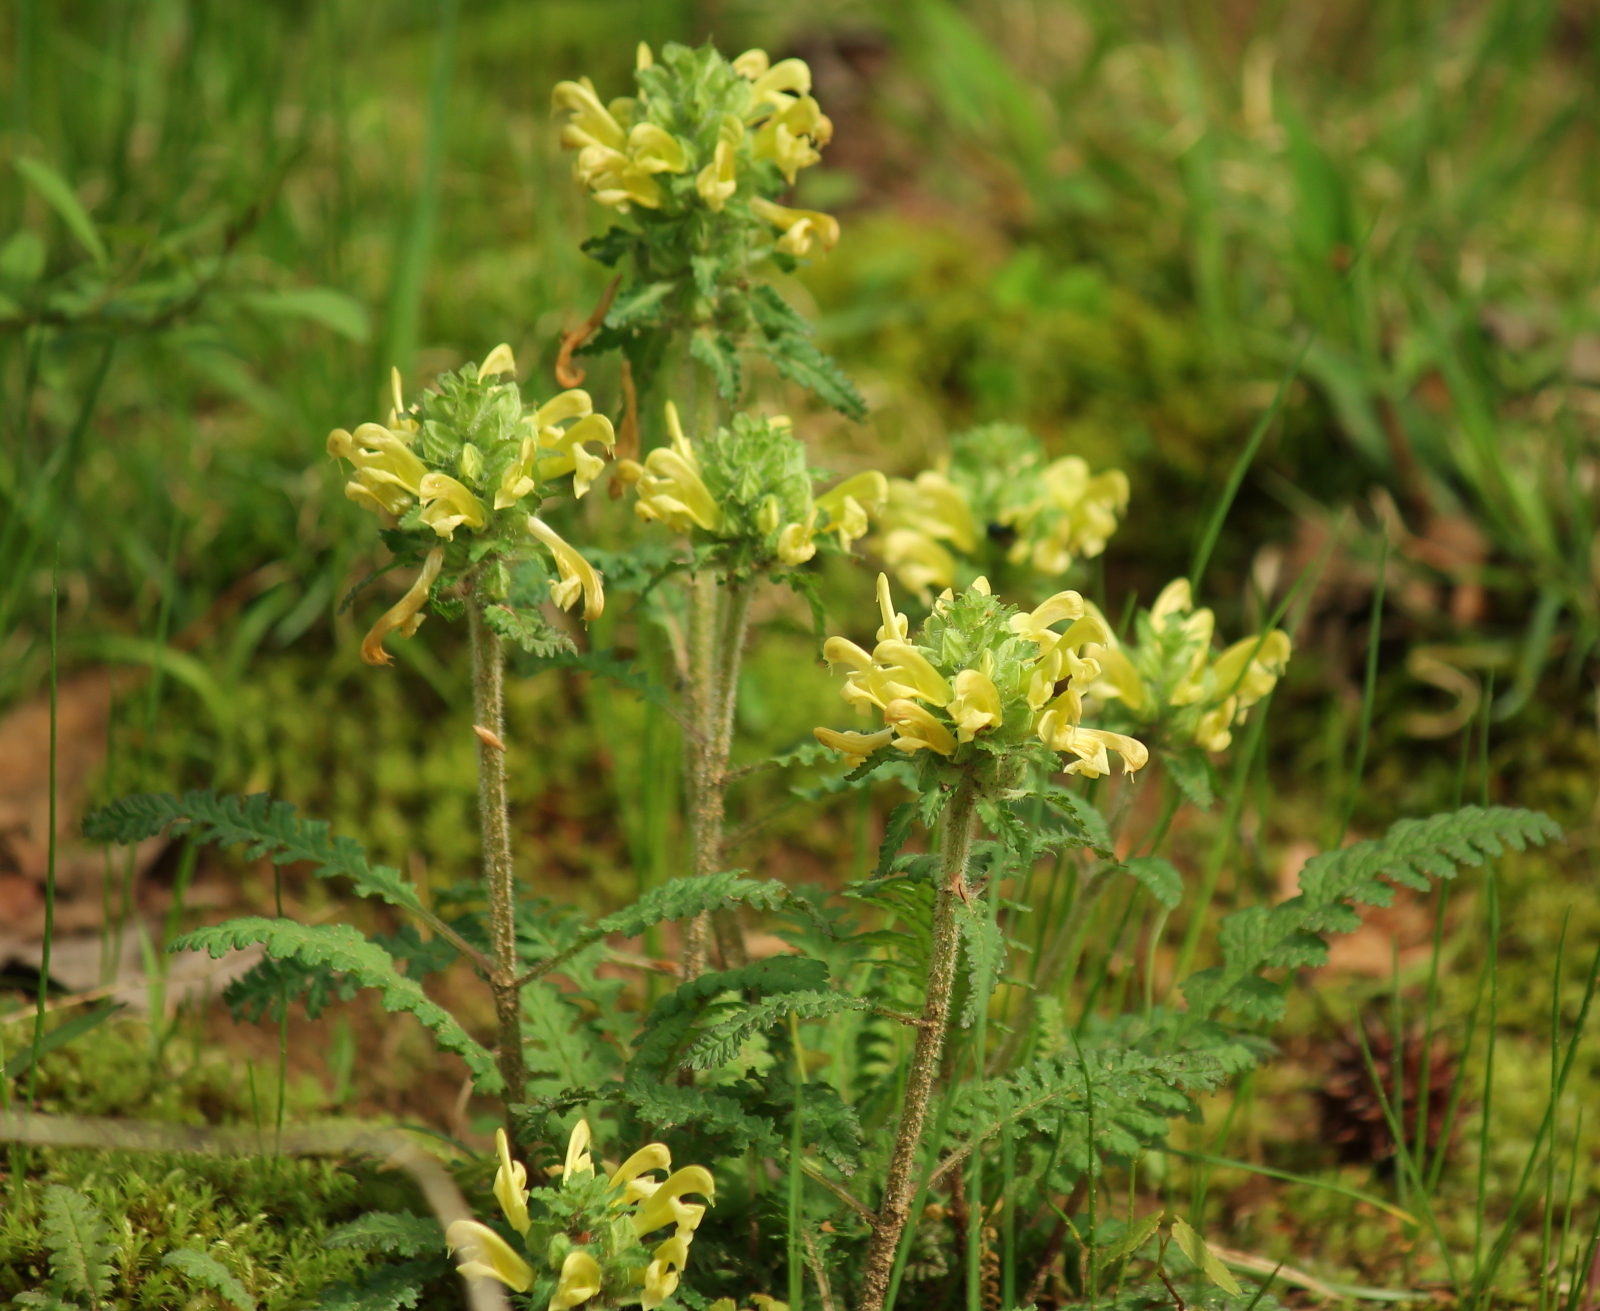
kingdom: Plantae
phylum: Tracheophyta
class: Magnoliopsida
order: Lamiales
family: Orobanchaceae
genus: Pedicularis
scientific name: Pedicularis canadensis
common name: Early lousewort
